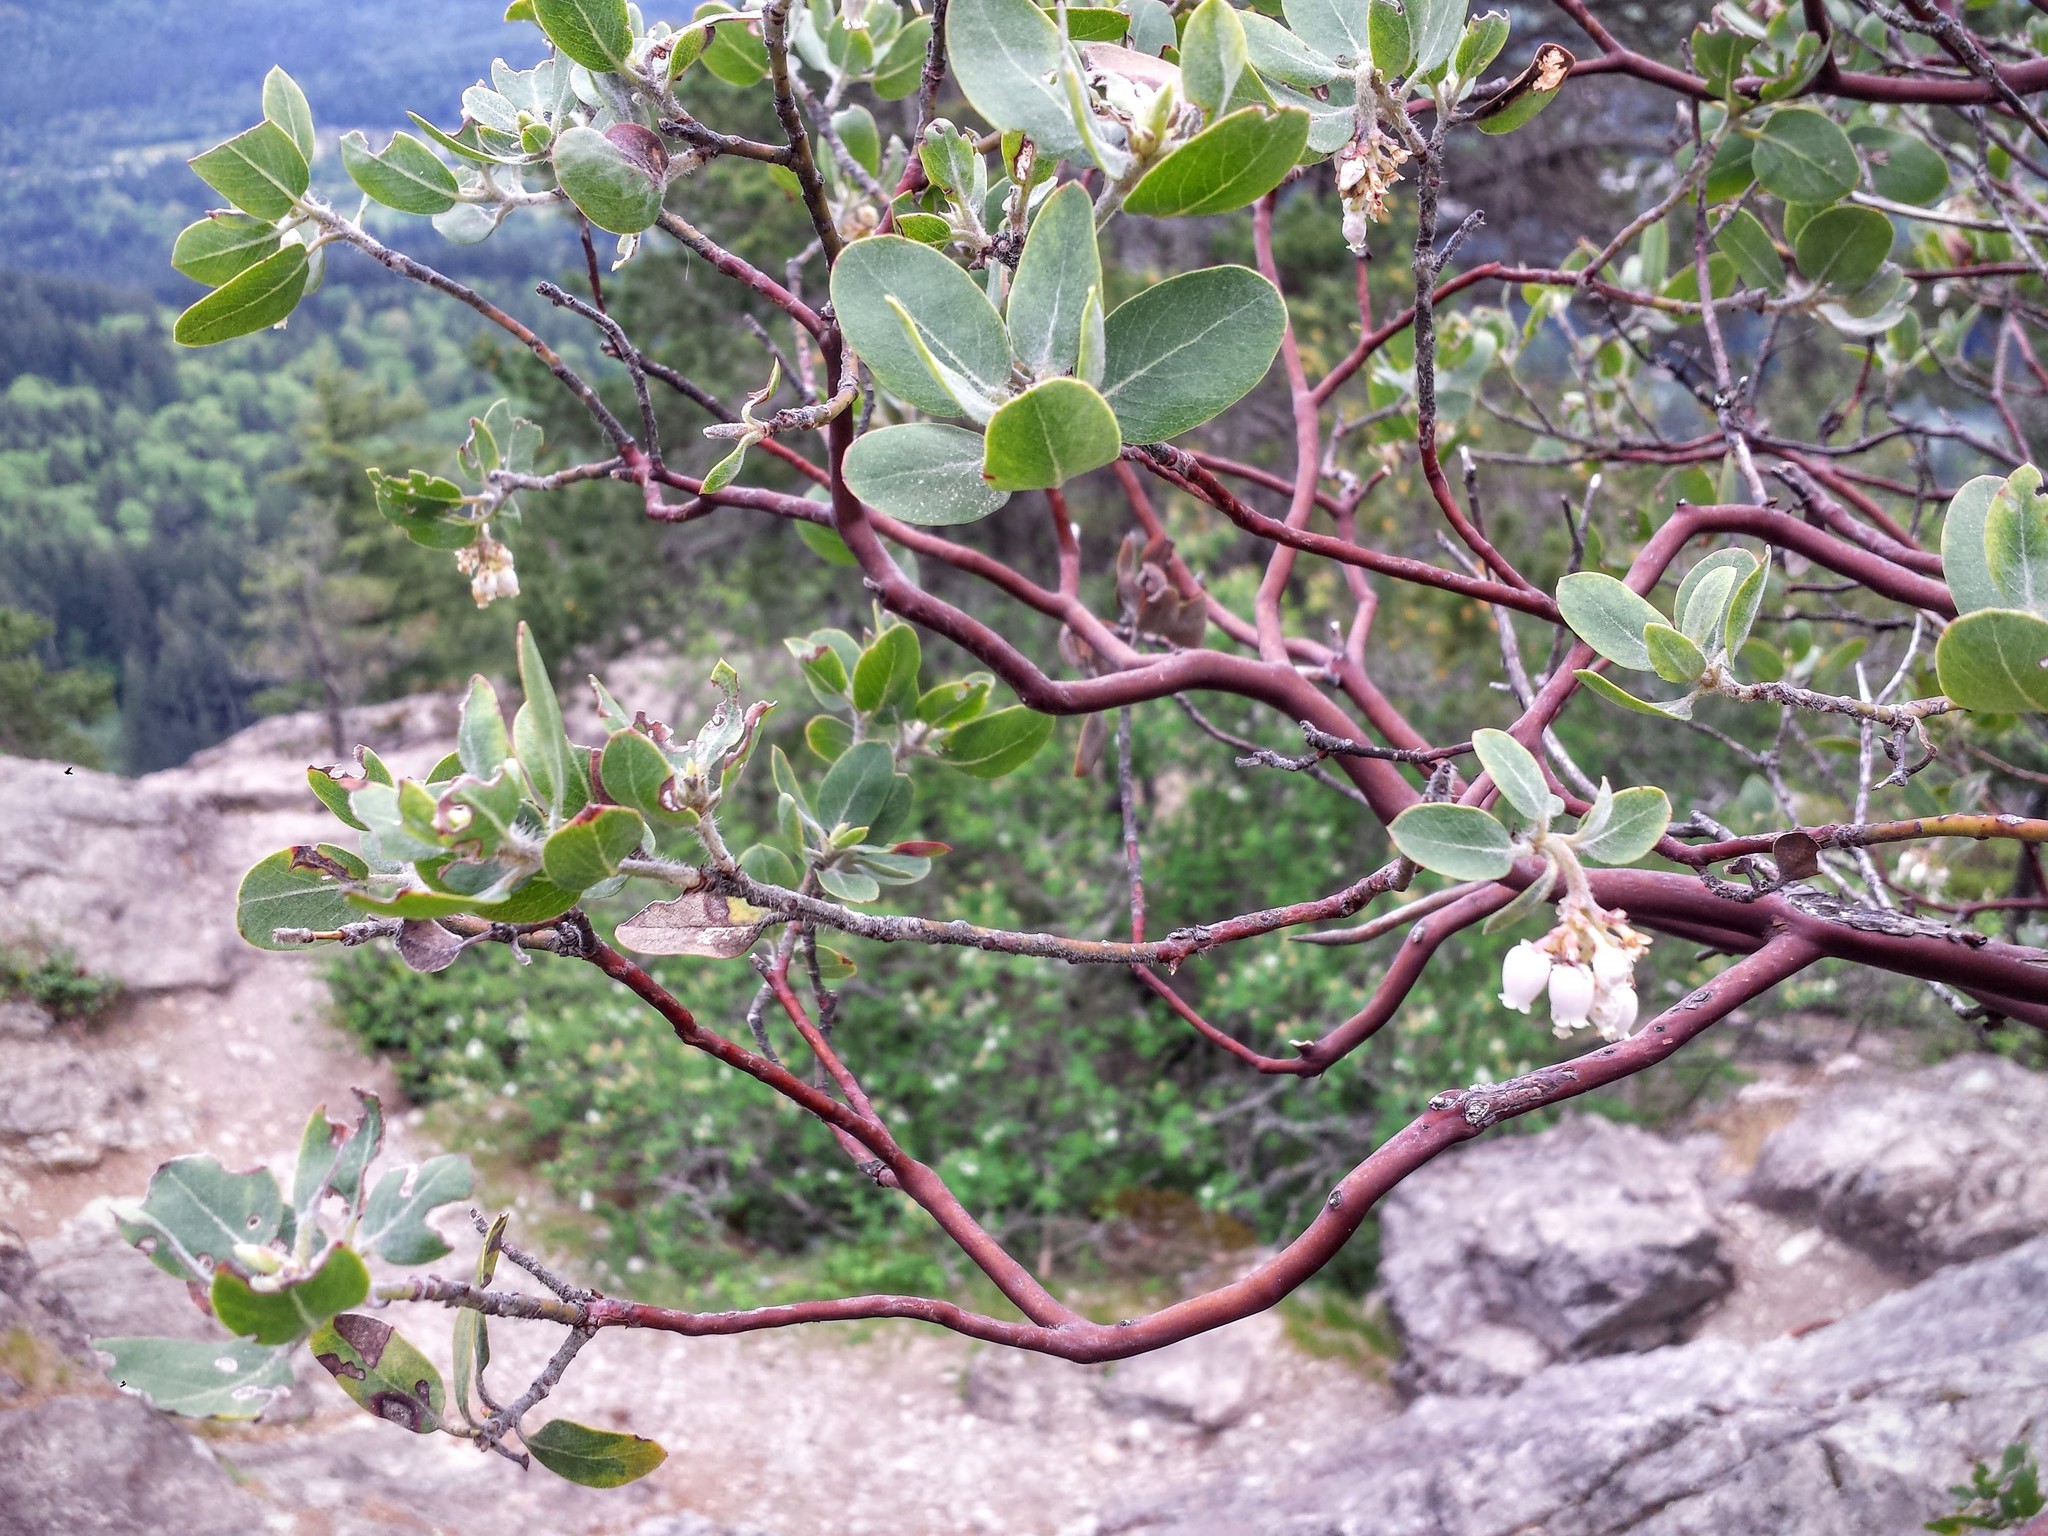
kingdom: Plantae
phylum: Tracheophyta
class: Magnoliopsida
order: Ericales
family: Ericaceae
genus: Arctostaphylos
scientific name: Arctostaphylos columbiana
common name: Bristly bearberry
